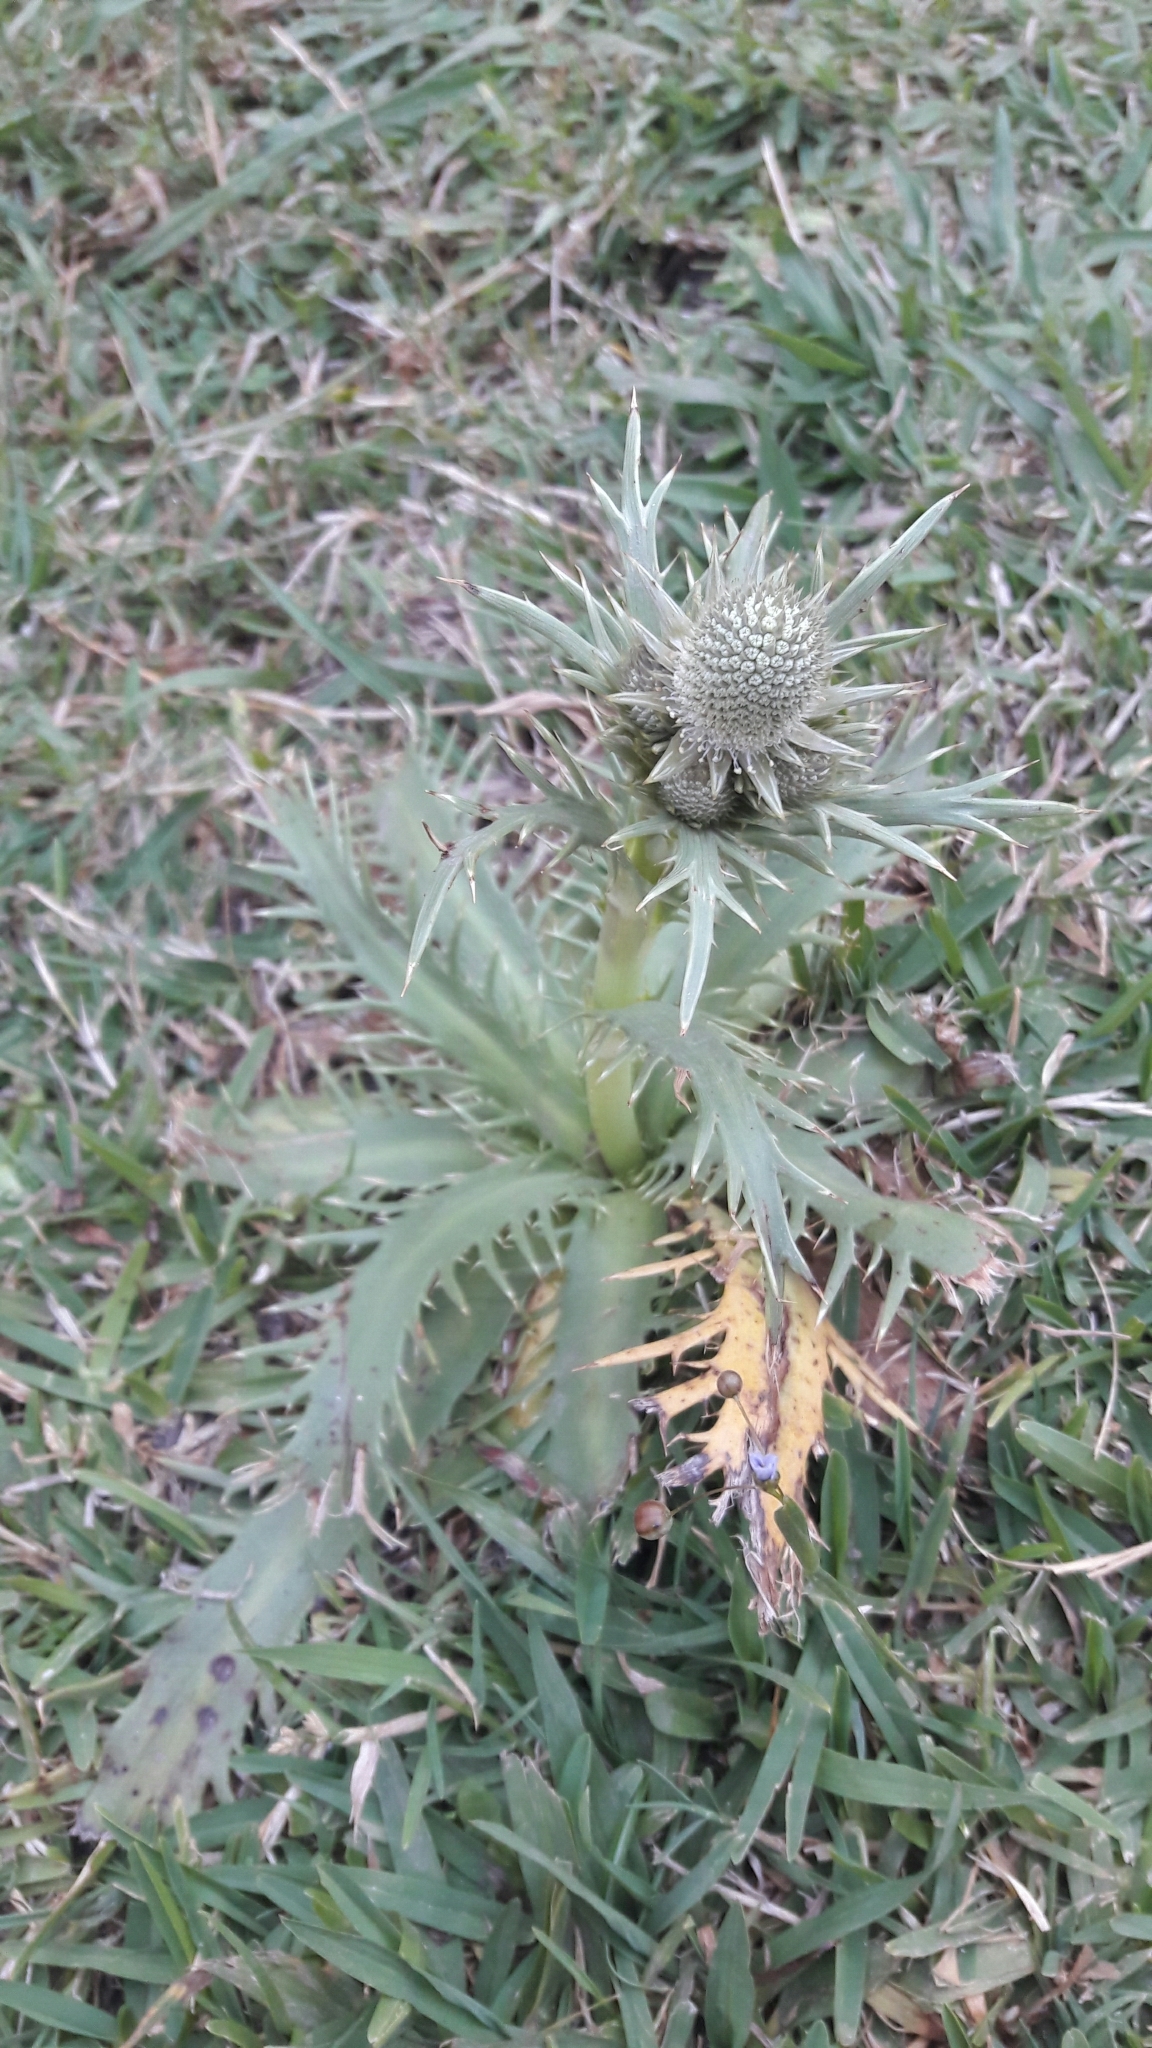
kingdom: Plantae
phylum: Tracheophyta
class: Magnoliopsida
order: Apiales
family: Apiaceae
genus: Eryngium
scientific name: Eryngium agavifolium
